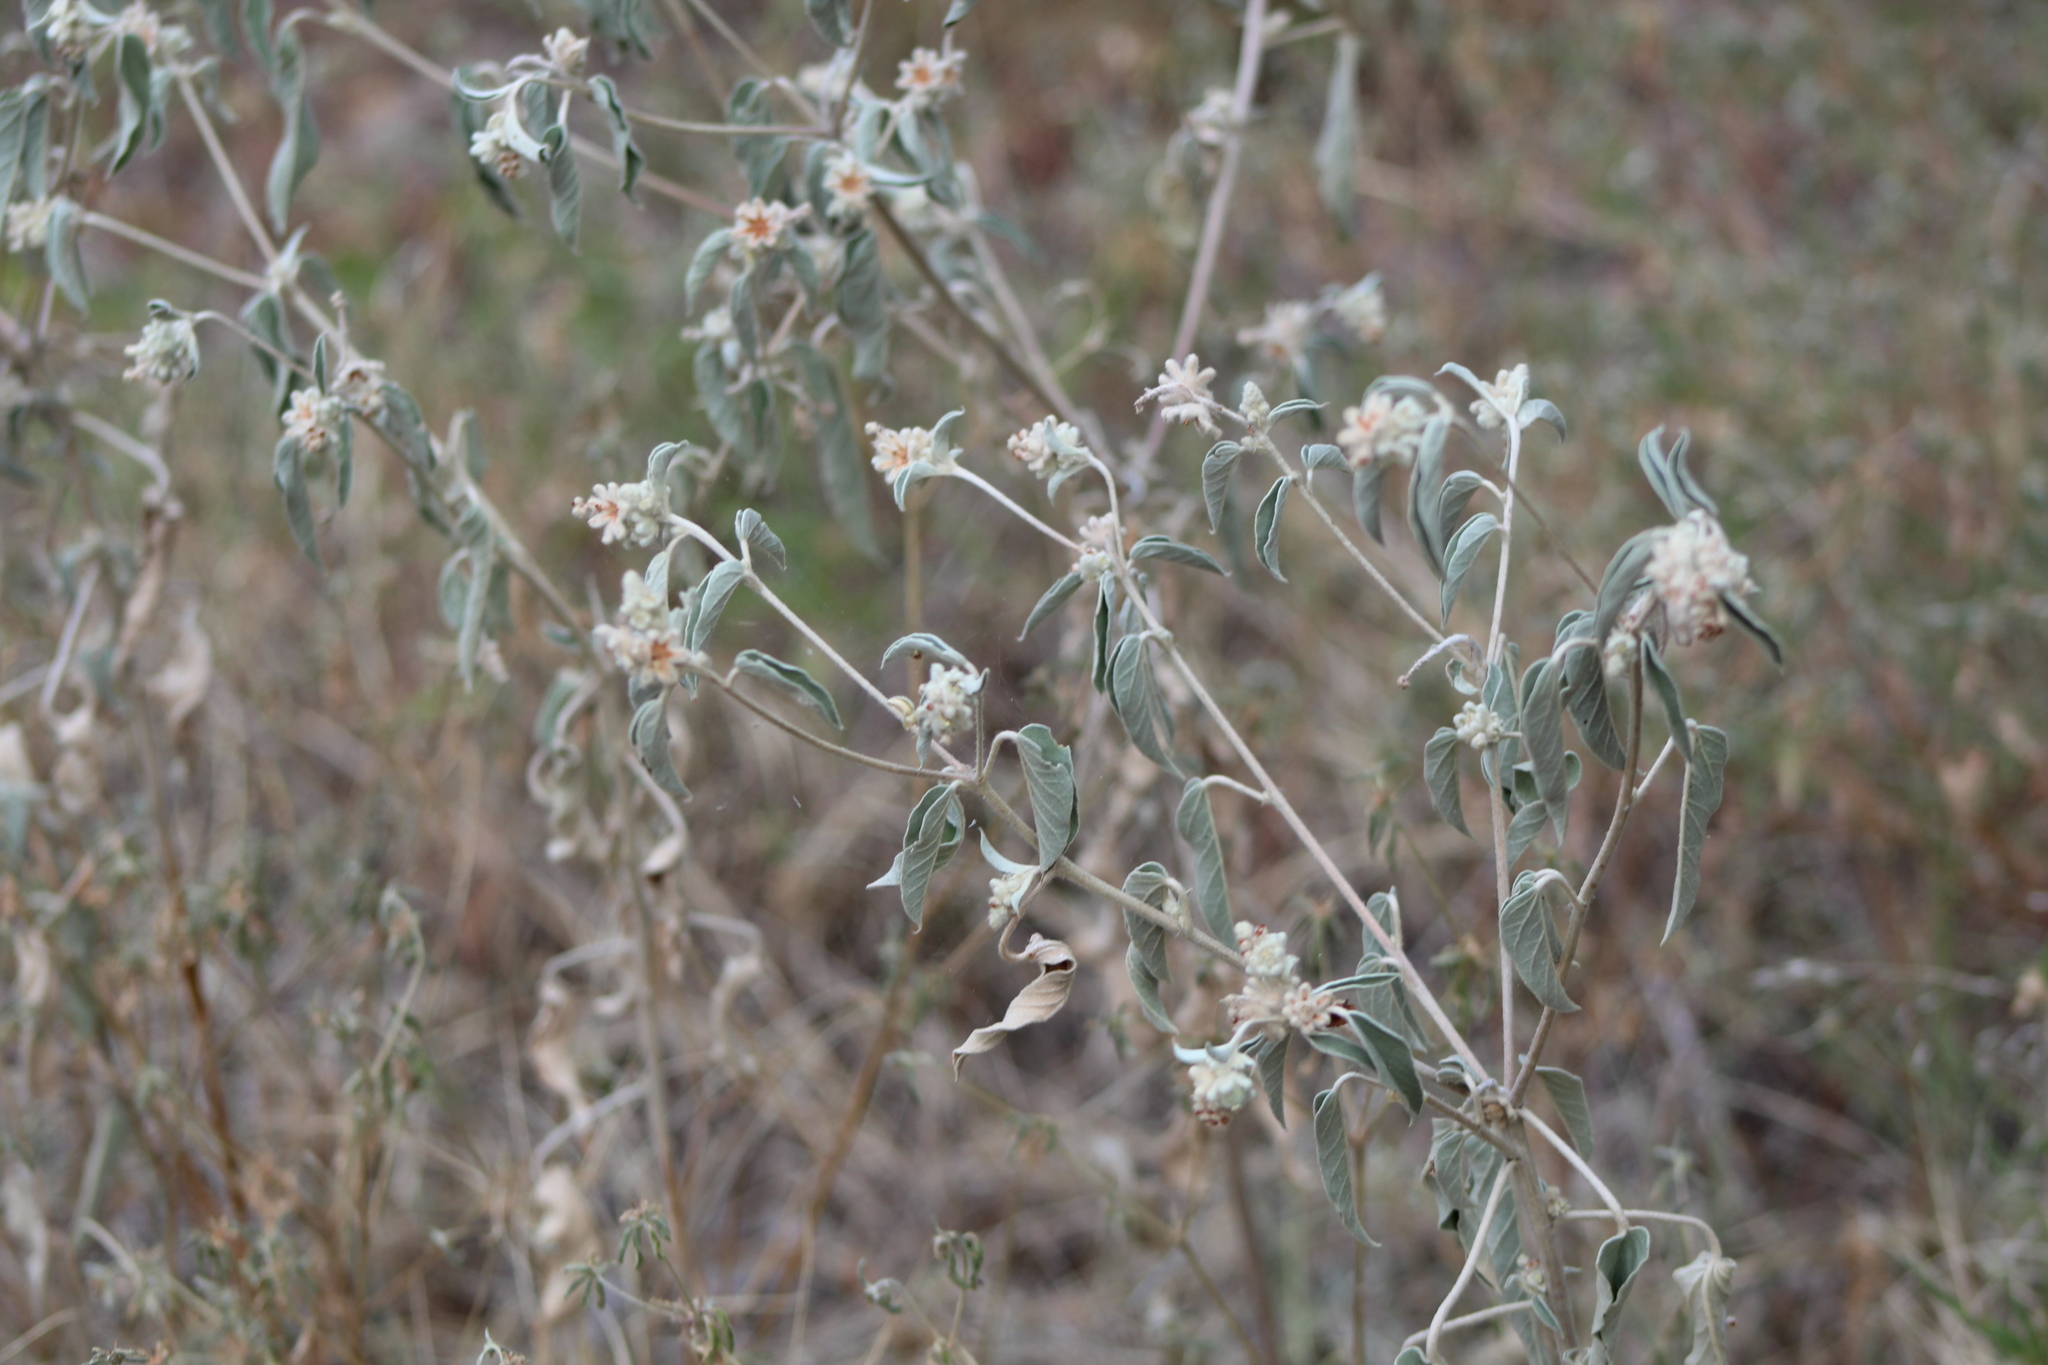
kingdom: Plantae
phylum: Tracheophyta
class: Magnoliopsida
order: Malpighiales
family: Euphorbiaceae
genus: Croton
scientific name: Croton capitatus
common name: Woolly croton
